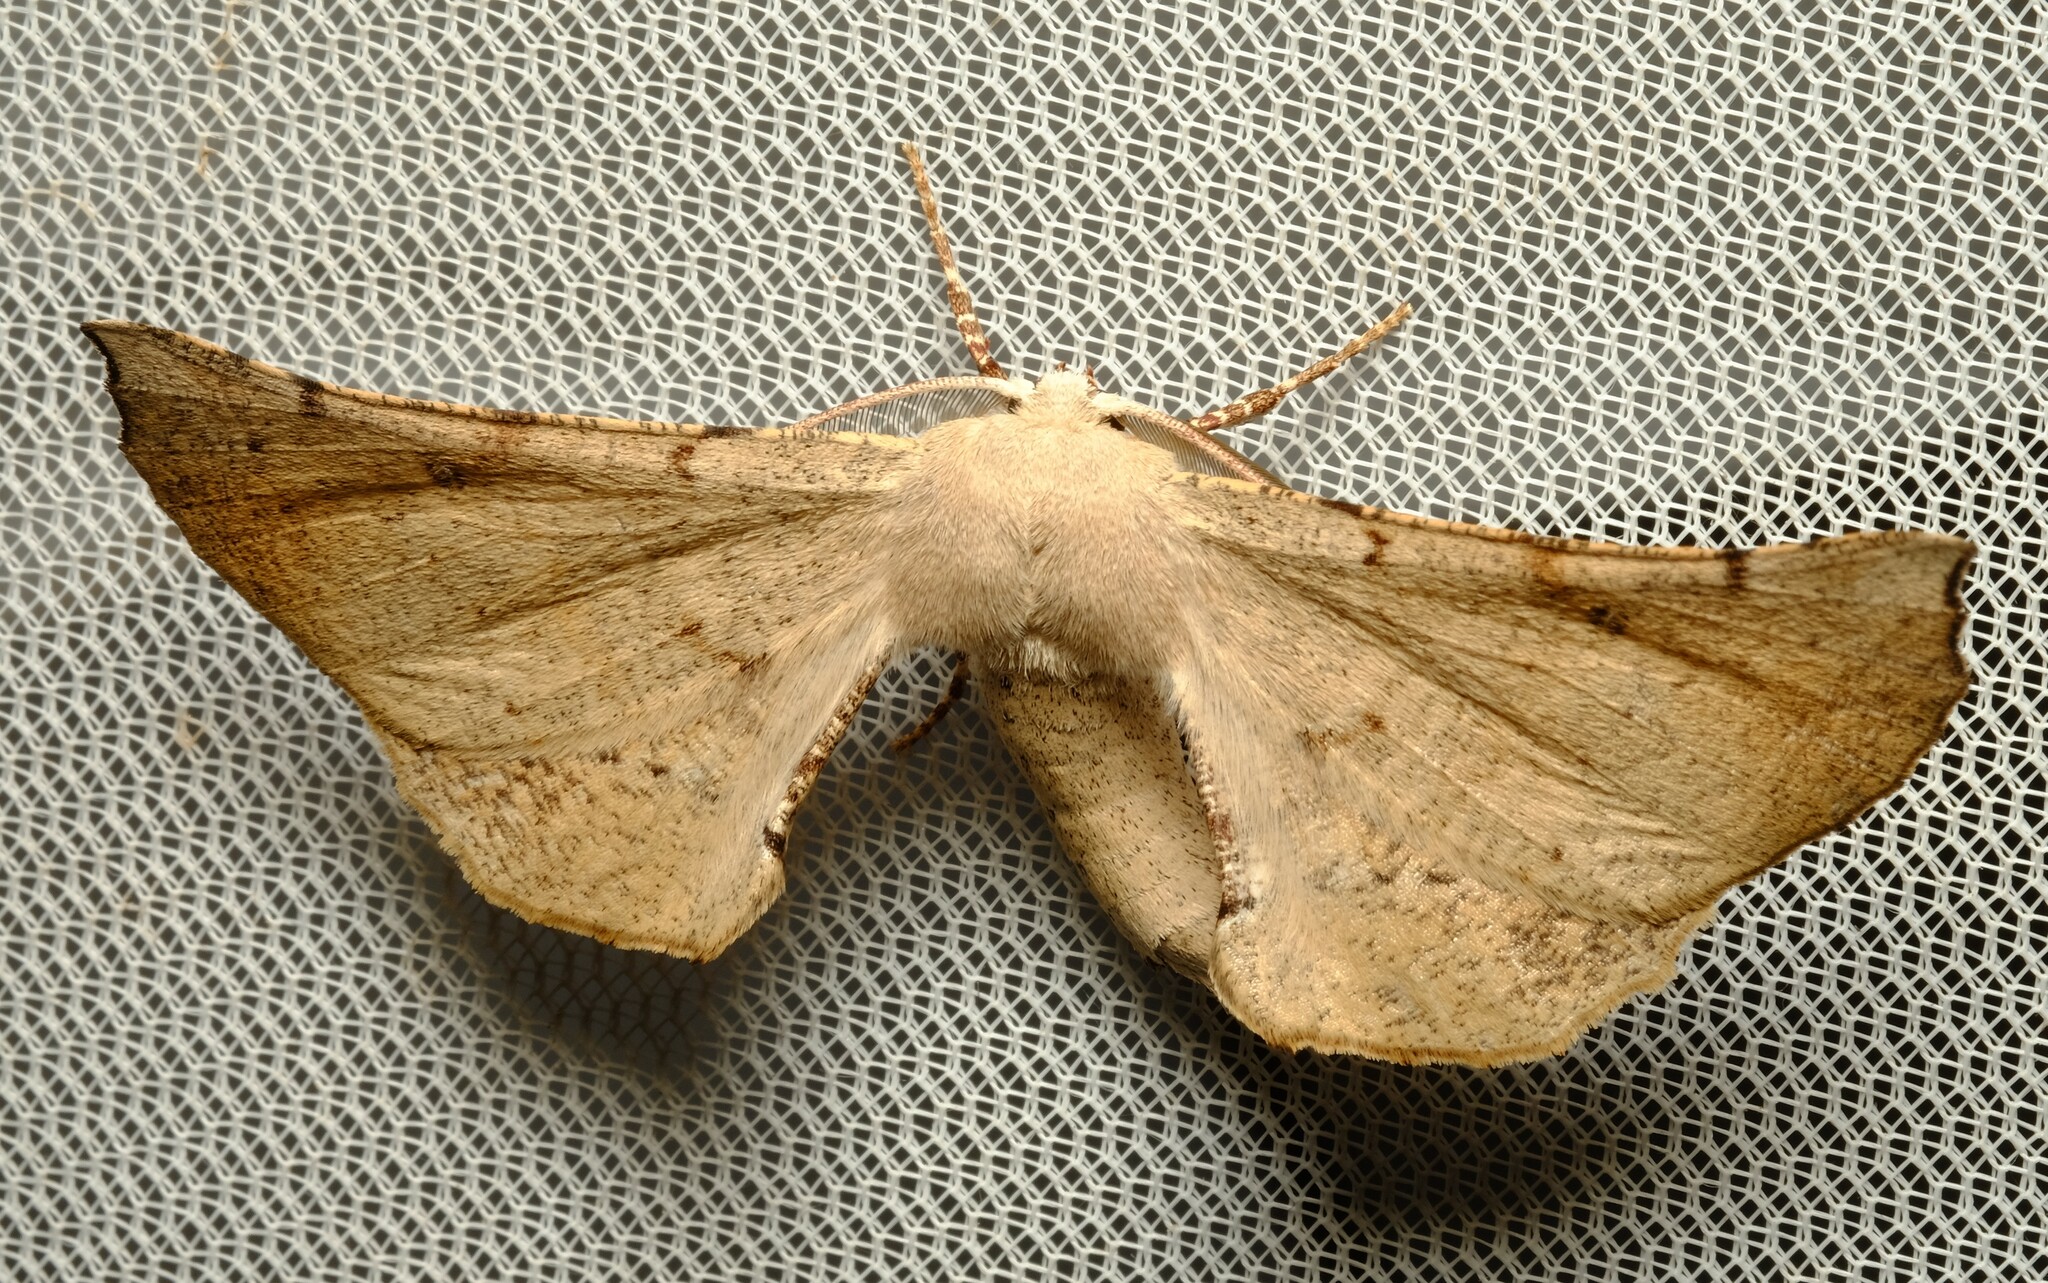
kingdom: Animalia
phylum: Arthropoda
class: Insecta
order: Lepidoptera
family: Geometridae
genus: Circopetes
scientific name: Circopetes obtusata
